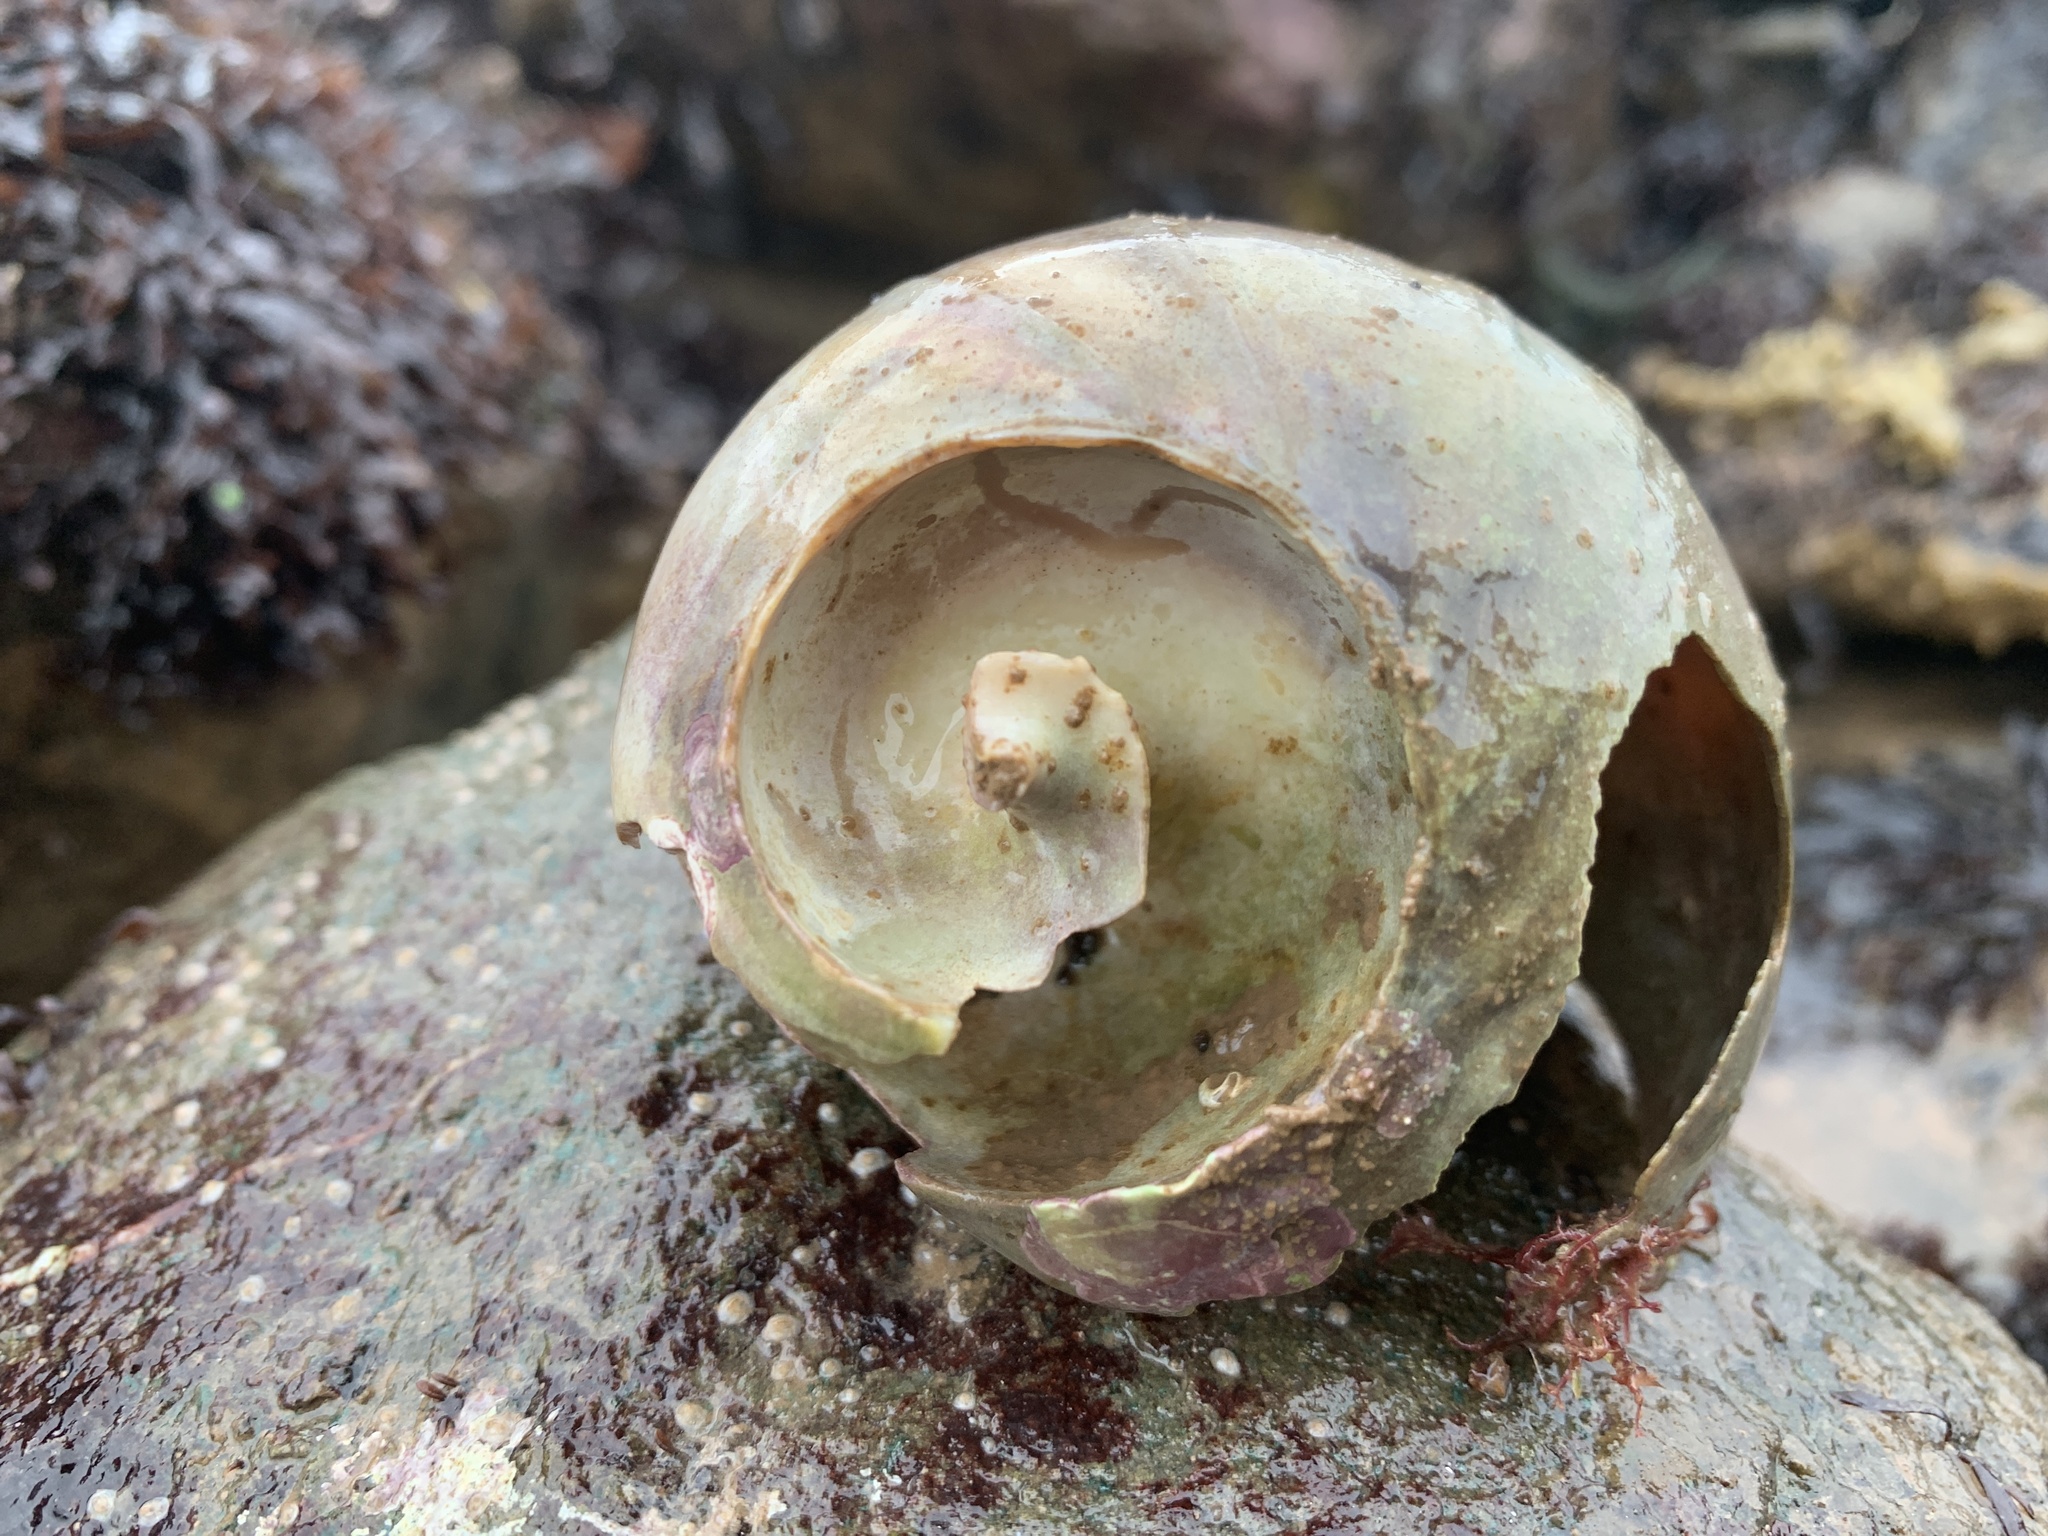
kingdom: Animalia
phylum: Mollusca
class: Gastropoda
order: Littorinimorpha
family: Naticidae
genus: Euspira
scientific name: Euspira heros
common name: Common northern moonsnail
